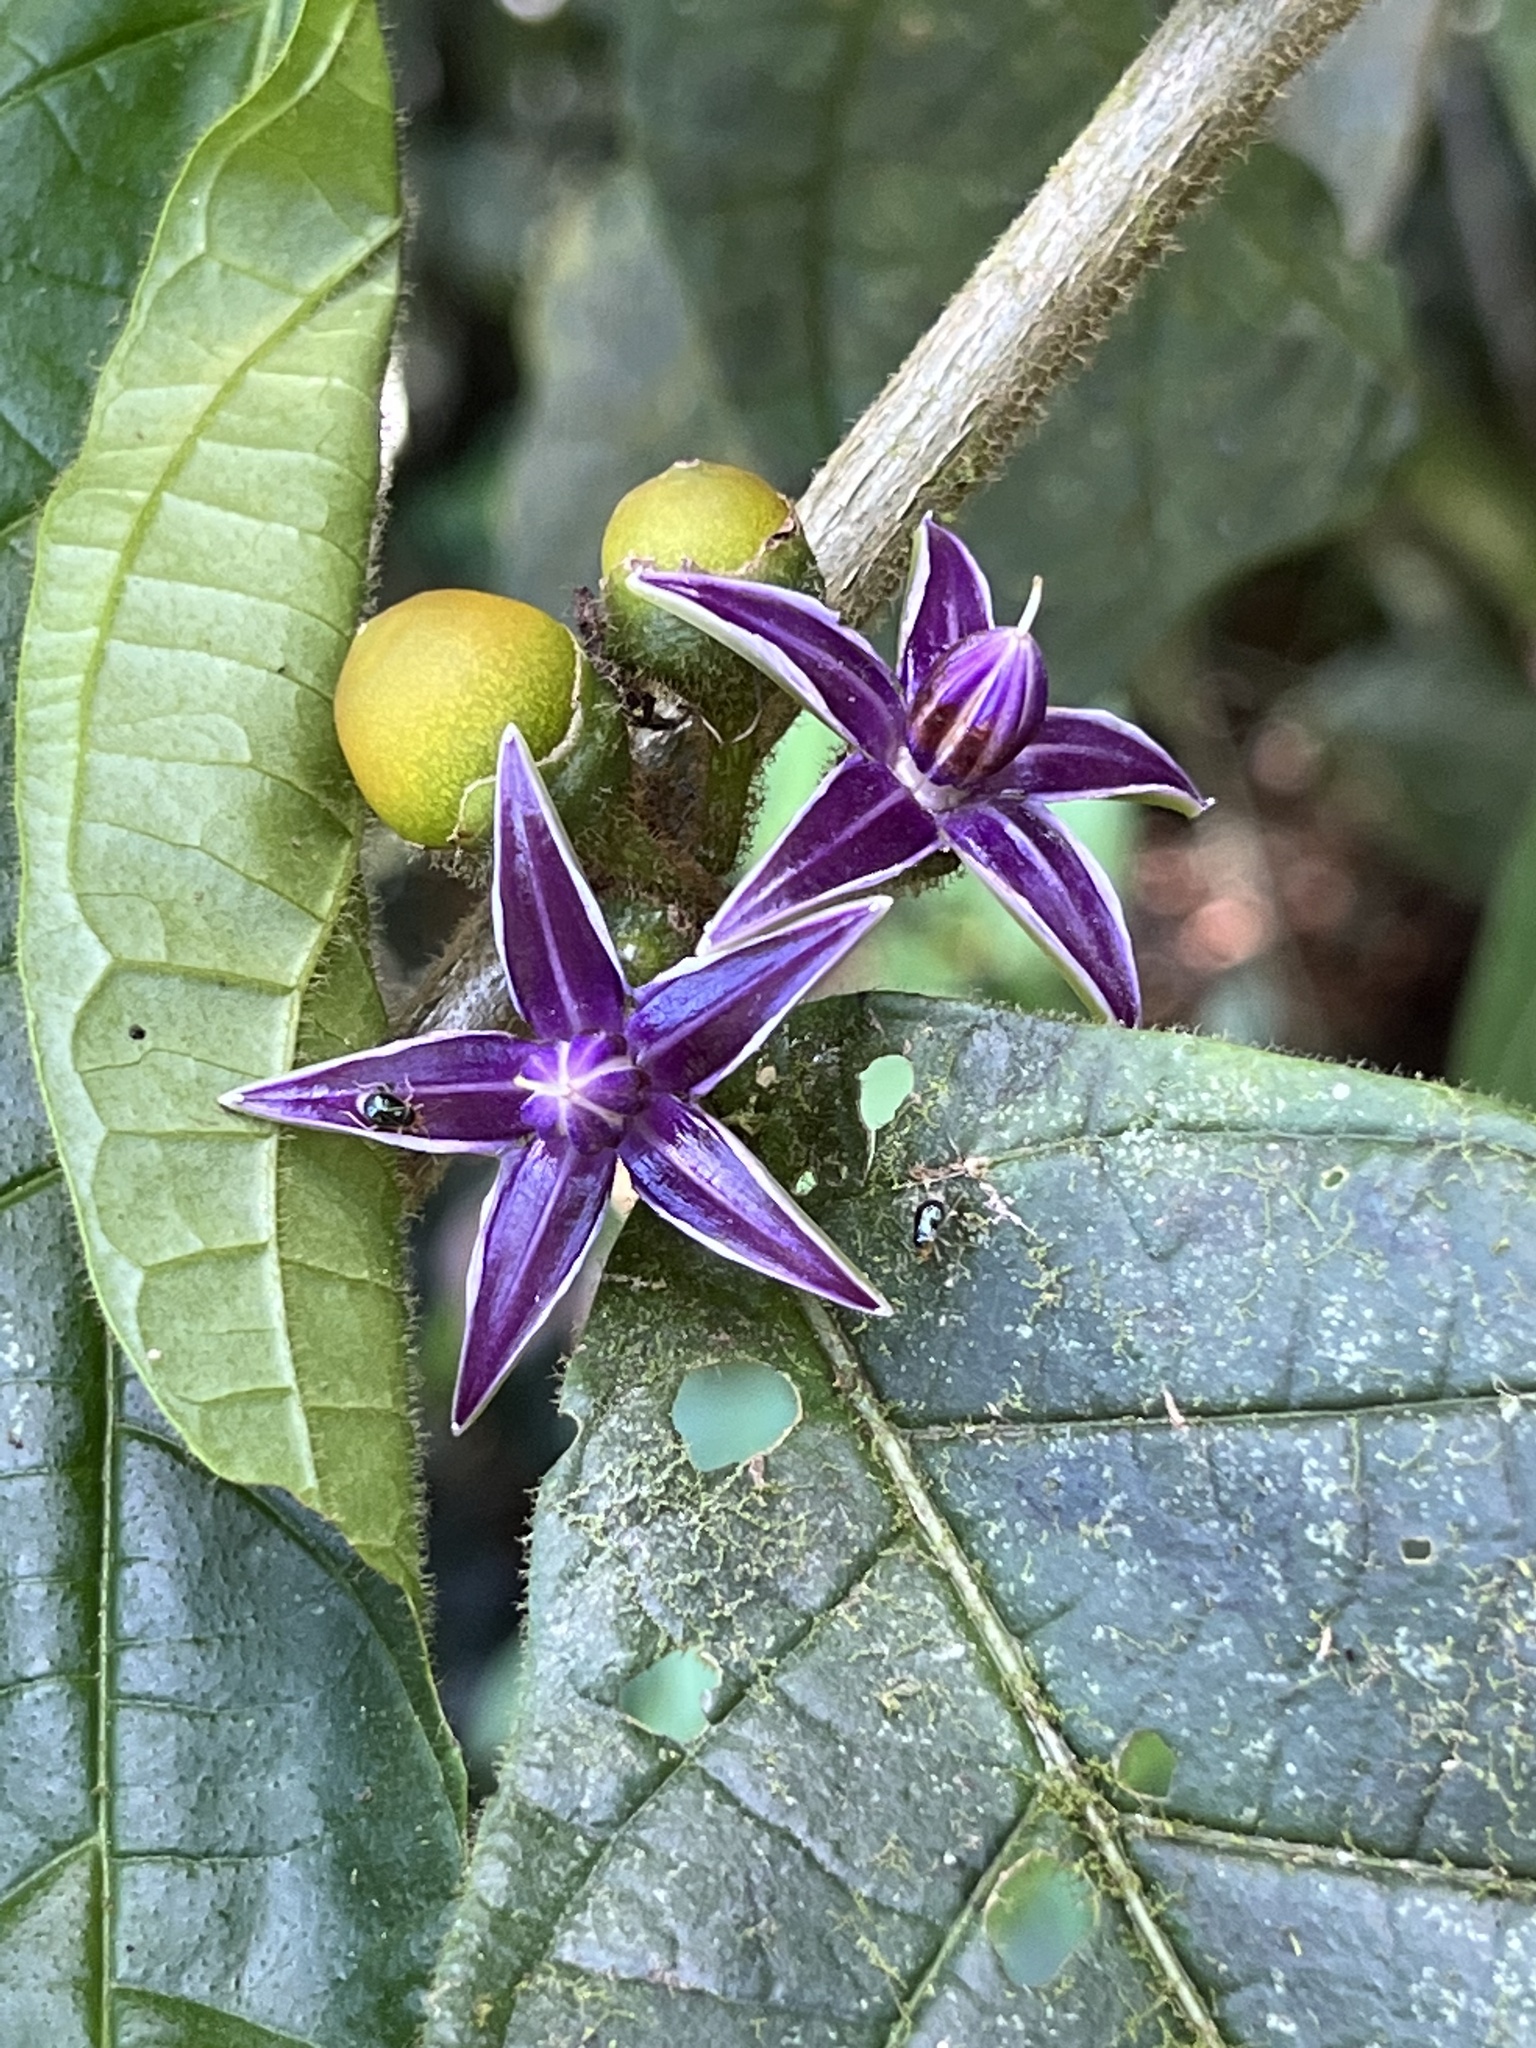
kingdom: Plantae
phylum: Tracheophyta
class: Magnoliopsida
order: Solanales
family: Solanaceae
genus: Lycianthes
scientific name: Lycianthes sanctaeclarae
